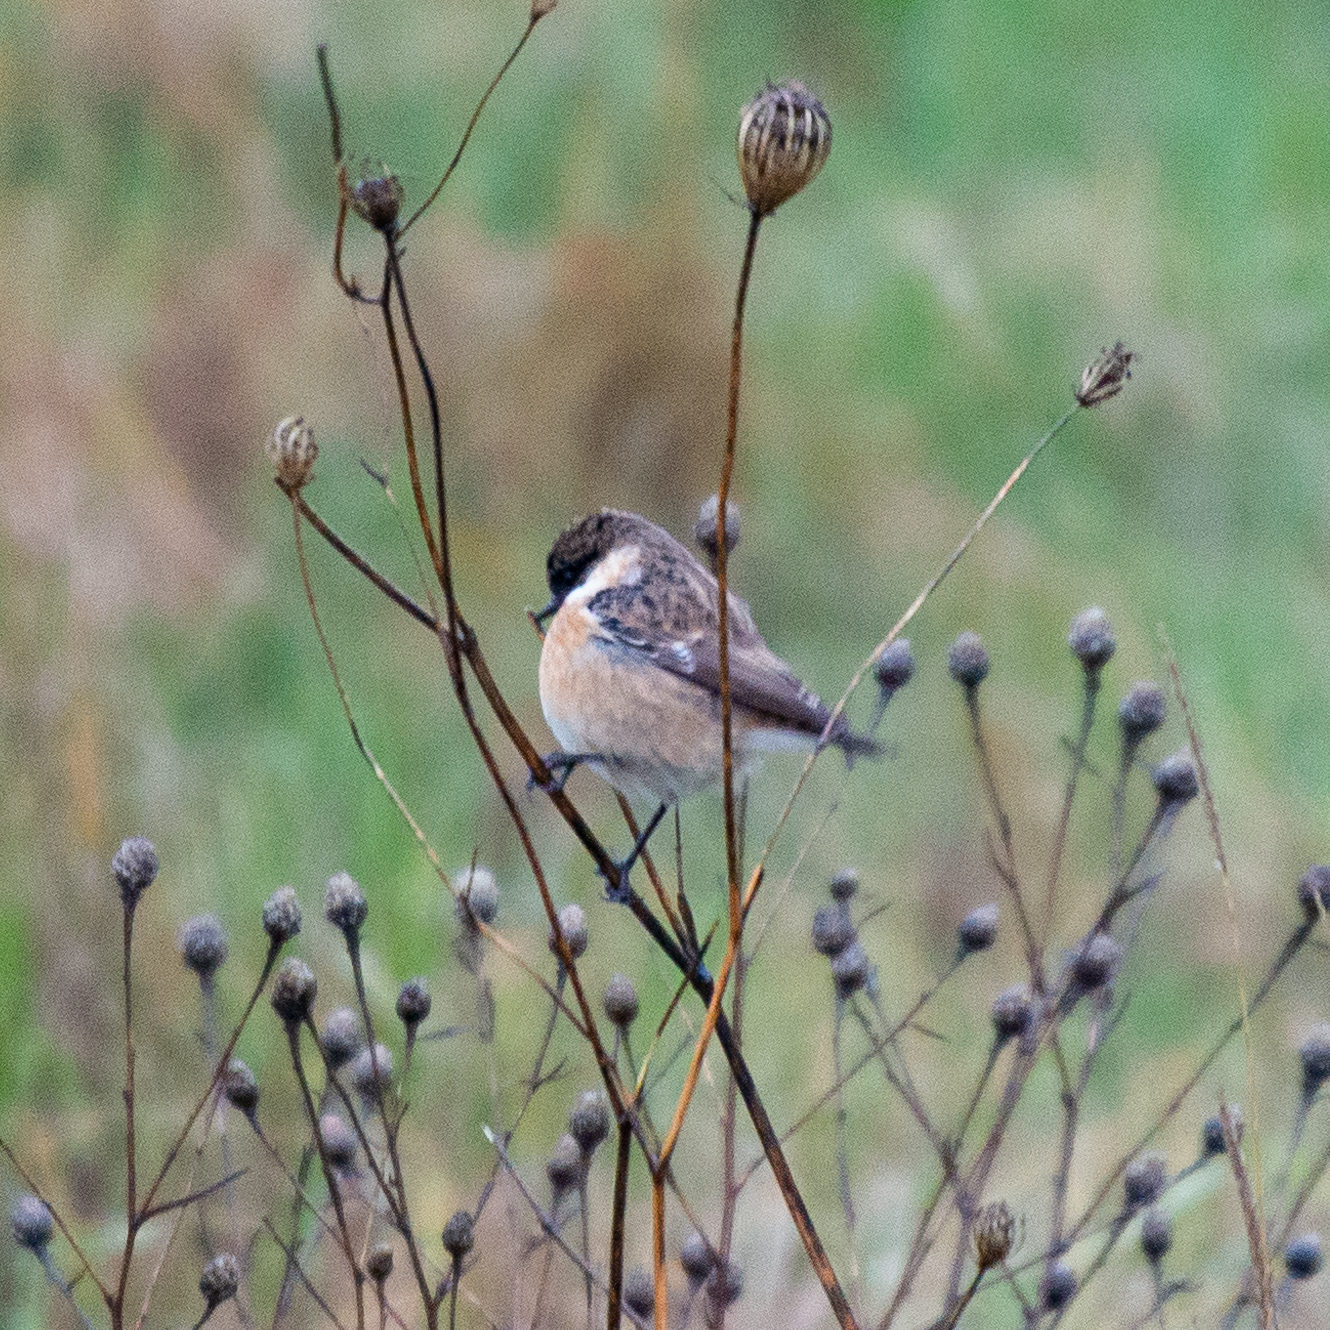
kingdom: Animalia
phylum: Chordata
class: Aves
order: Passeriformes
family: Muscicapidae
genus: Saxicola
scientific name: Saxicola rubicola
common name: European stonechat
